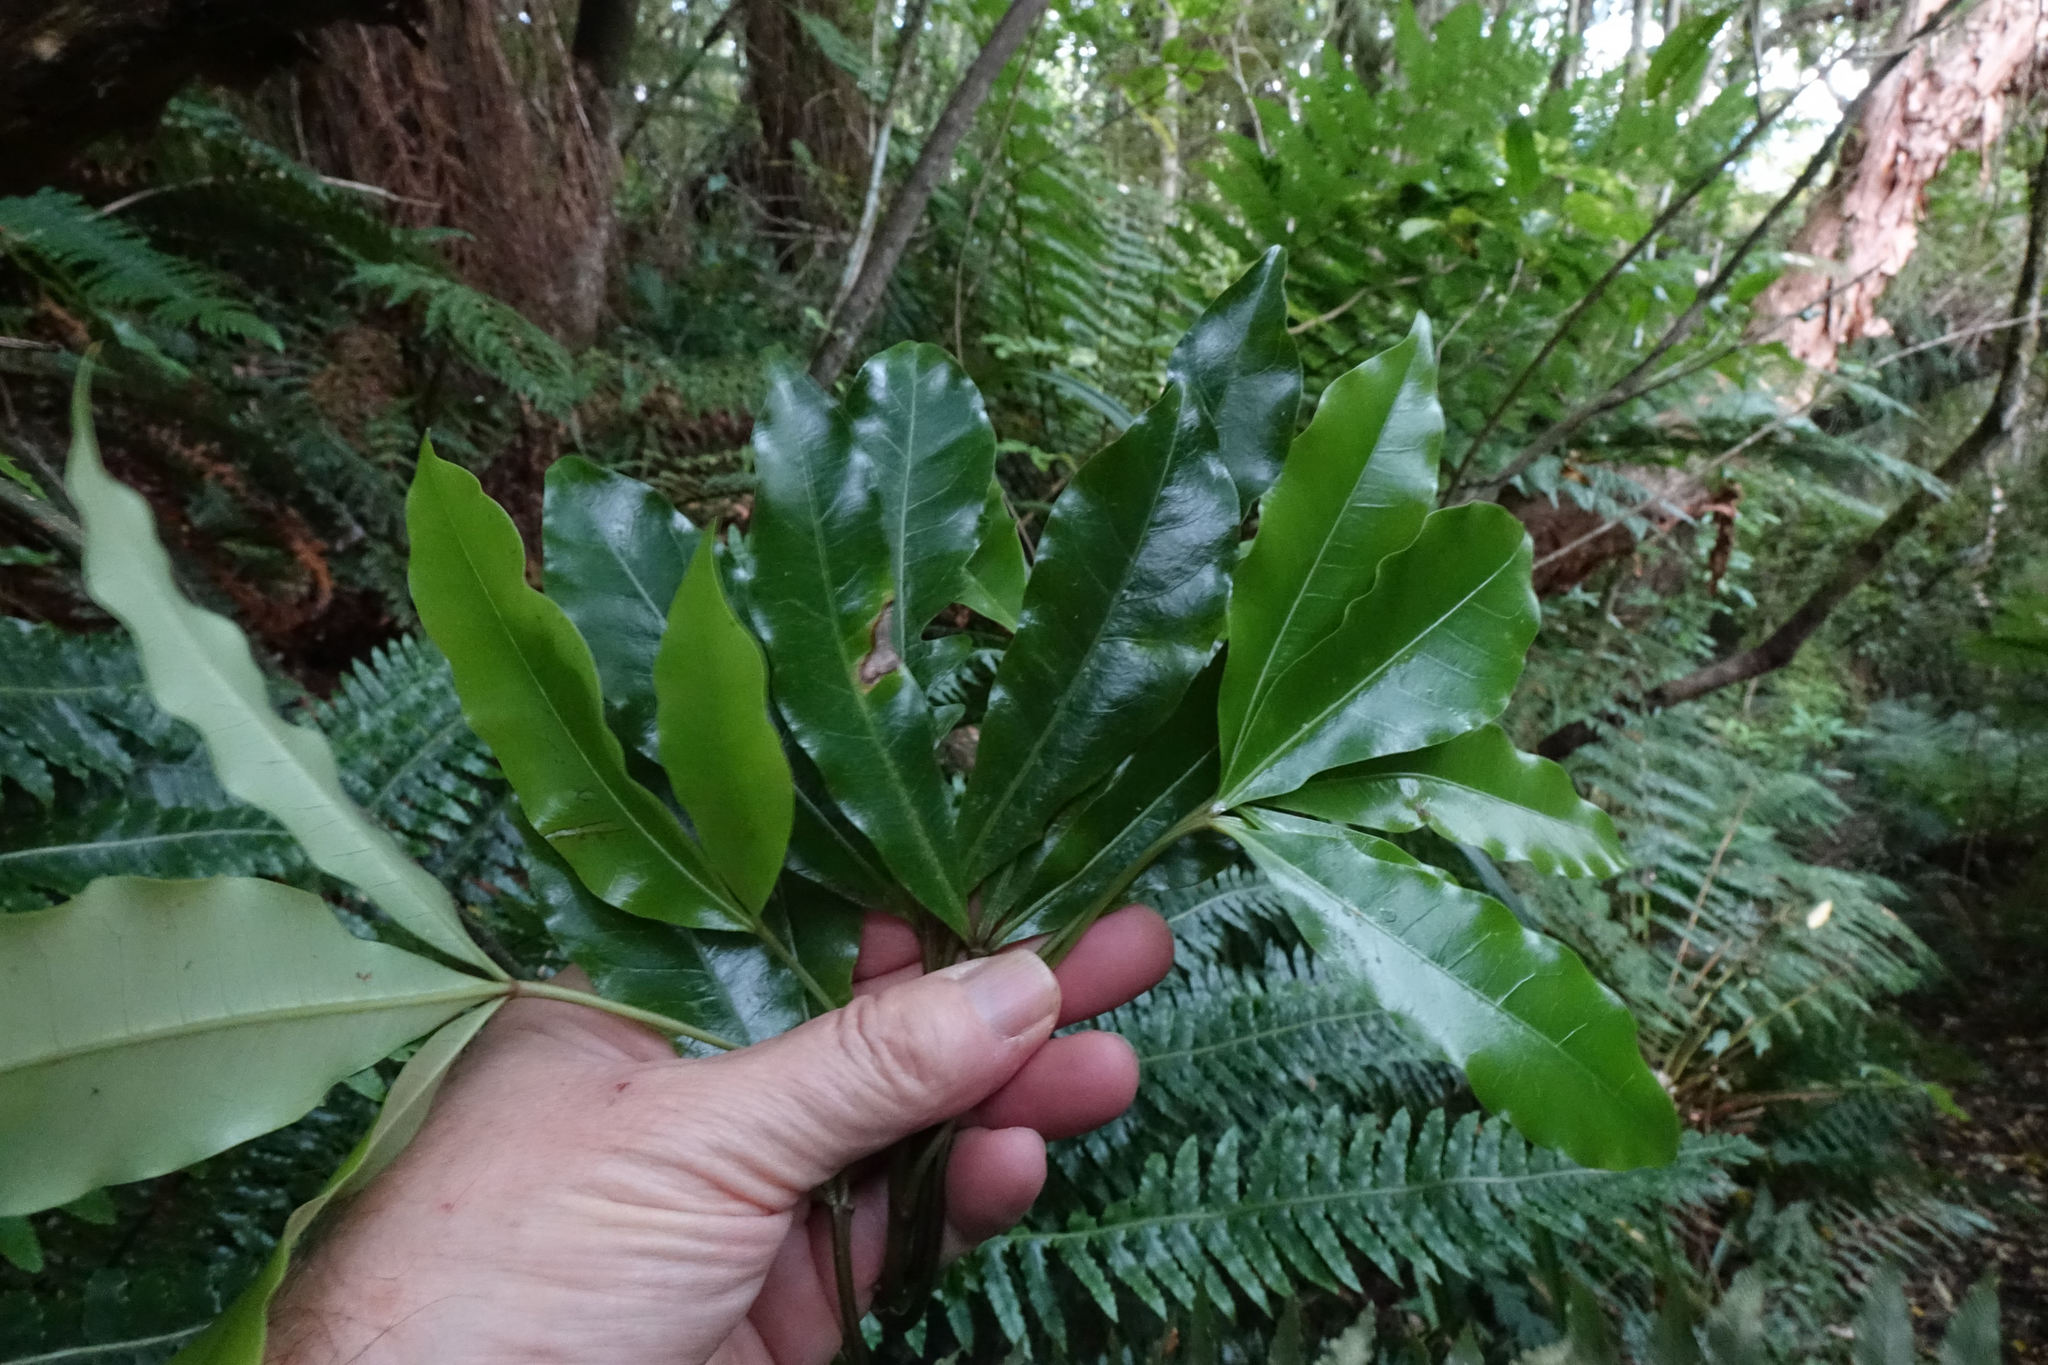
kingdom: Plantae
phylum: Tracheophyta
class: Magnoliopsida
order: Apiales
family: Araliaceae
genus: Raukaua
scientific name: Raukaua edgerleyi
